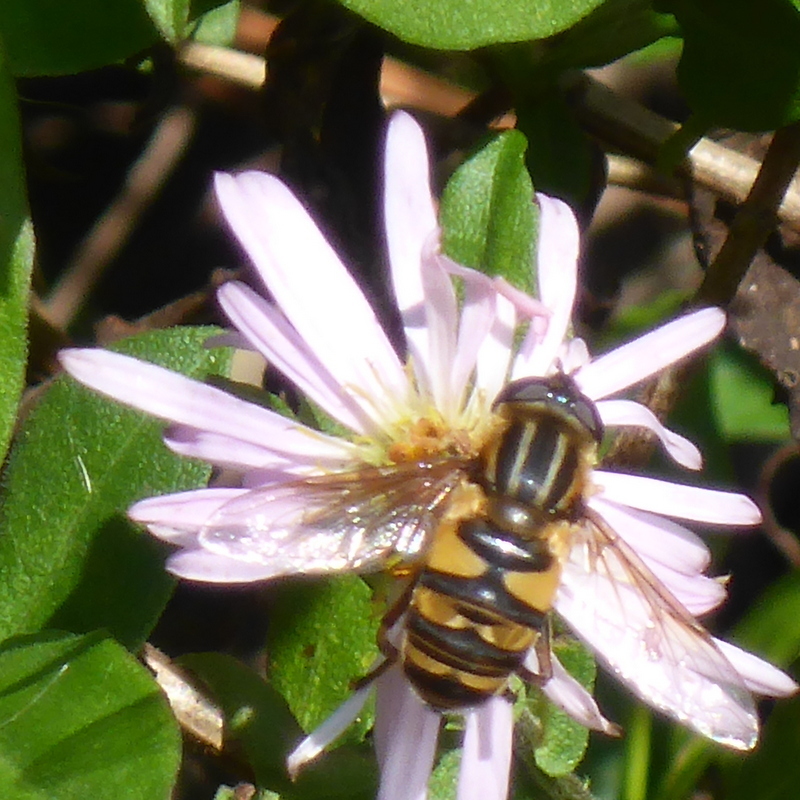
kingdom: Animalia
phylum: Arthropoda
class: Insecta
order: Diptera
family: Syrphidae
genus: Helophilus
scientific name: Helophilus fasciatus
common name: Narrow-headed marsh fly
